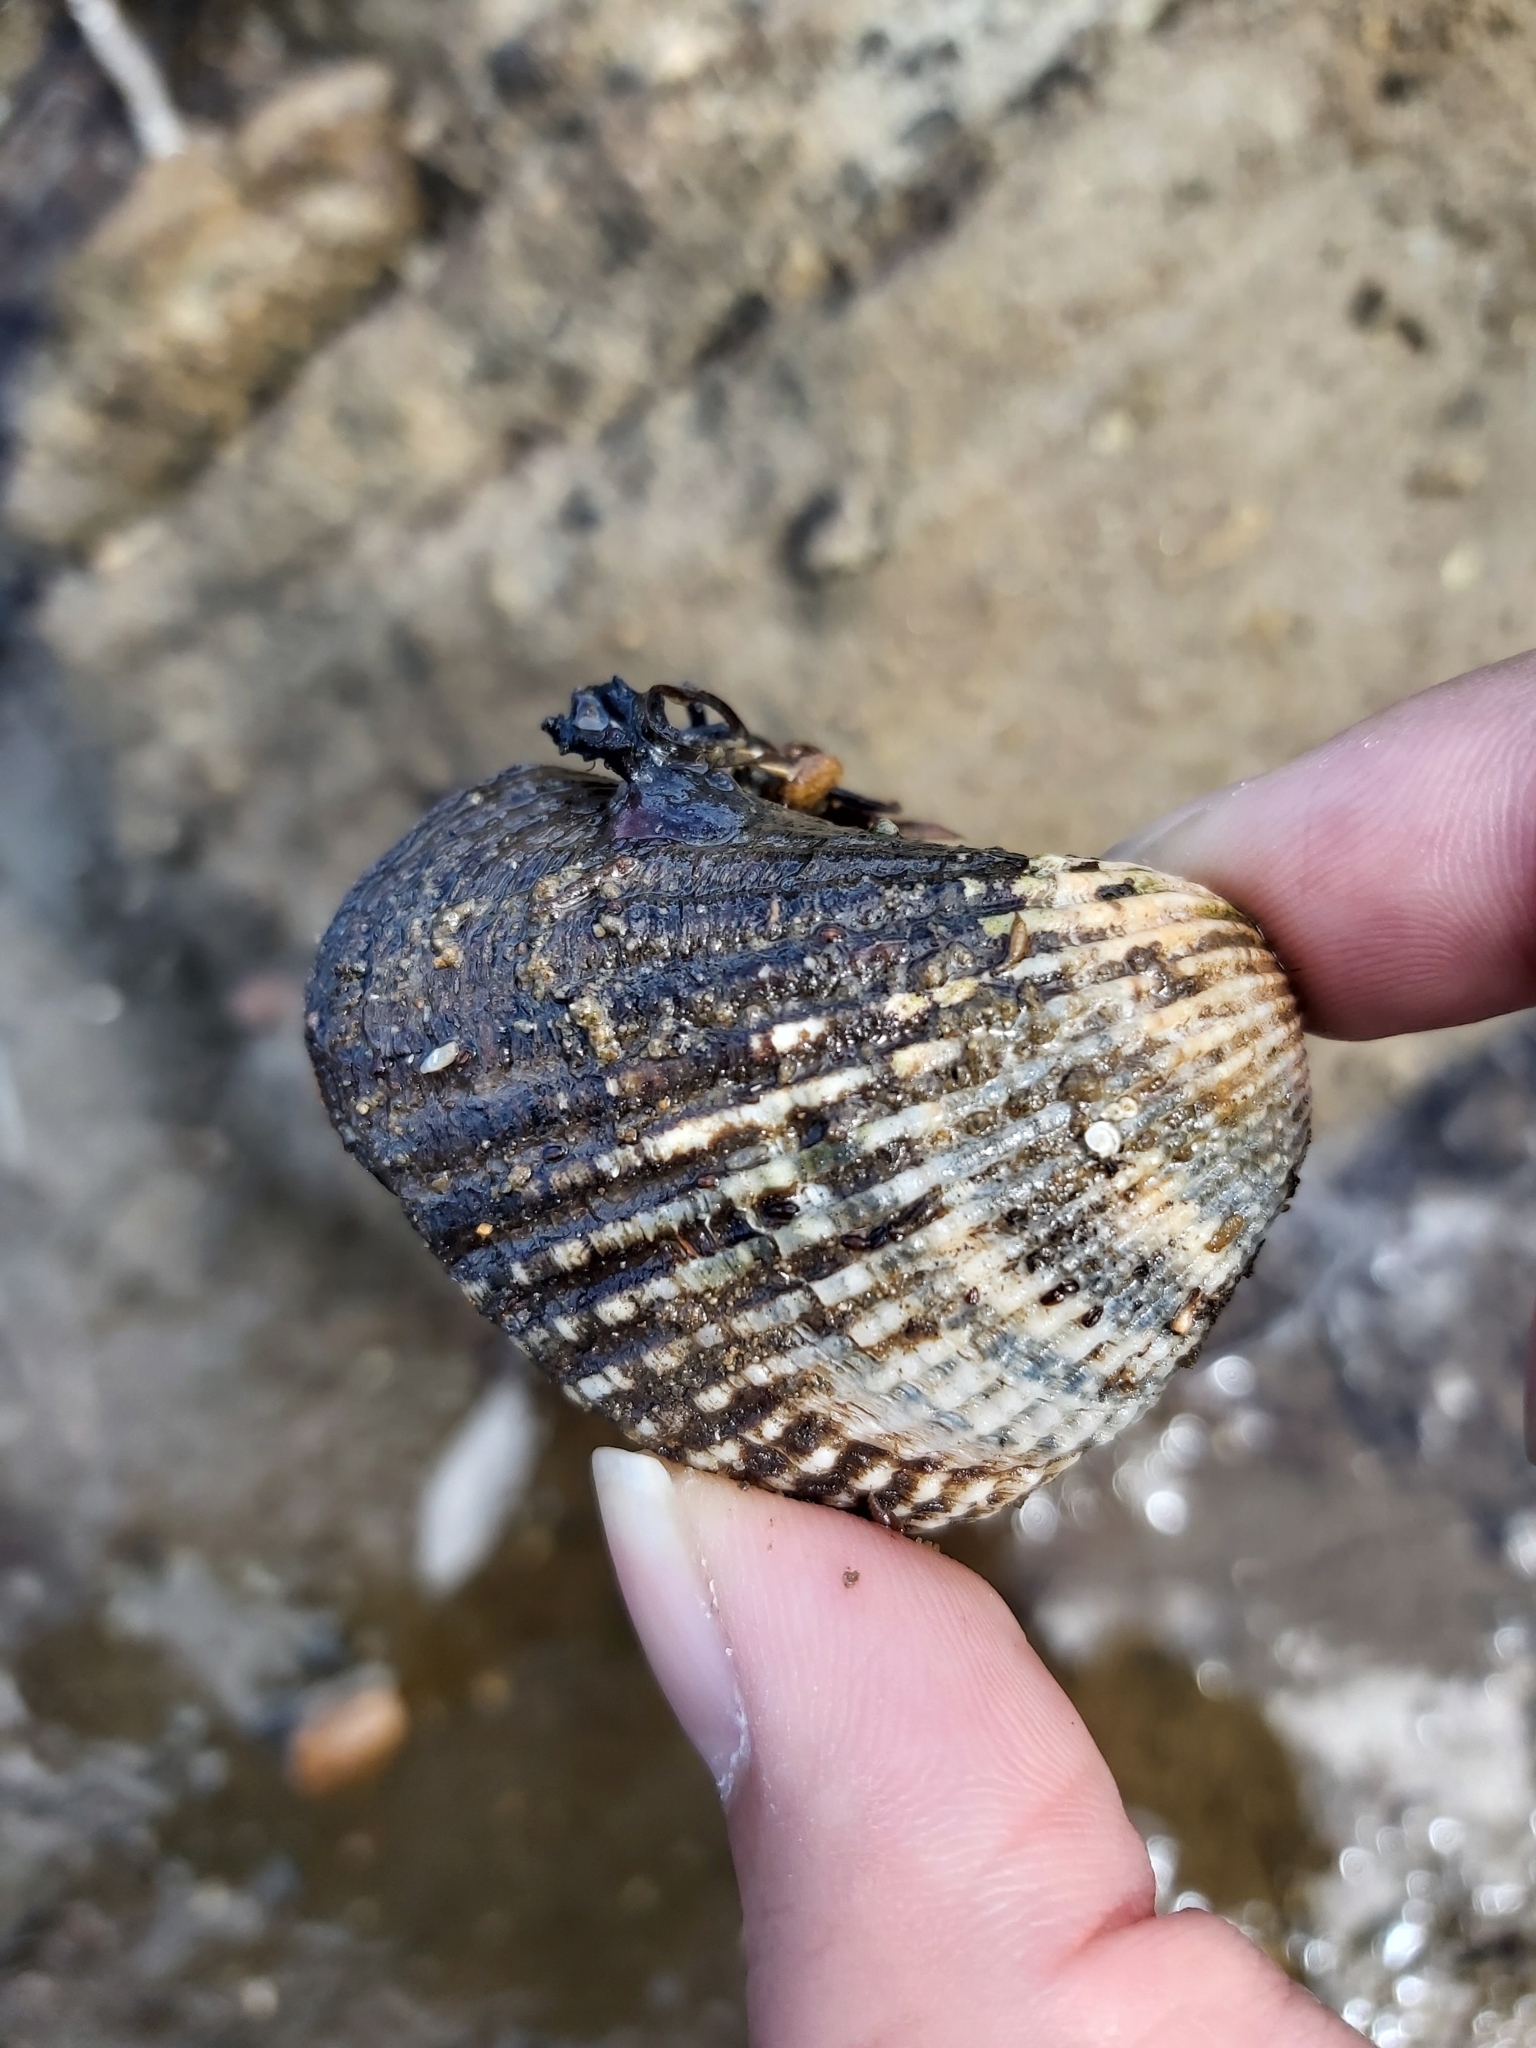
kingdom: Animalia
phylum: Mollusca
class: Bivalvia
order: Arcida
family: Arcidae
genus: Anadara
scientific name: Anadara trapezia
